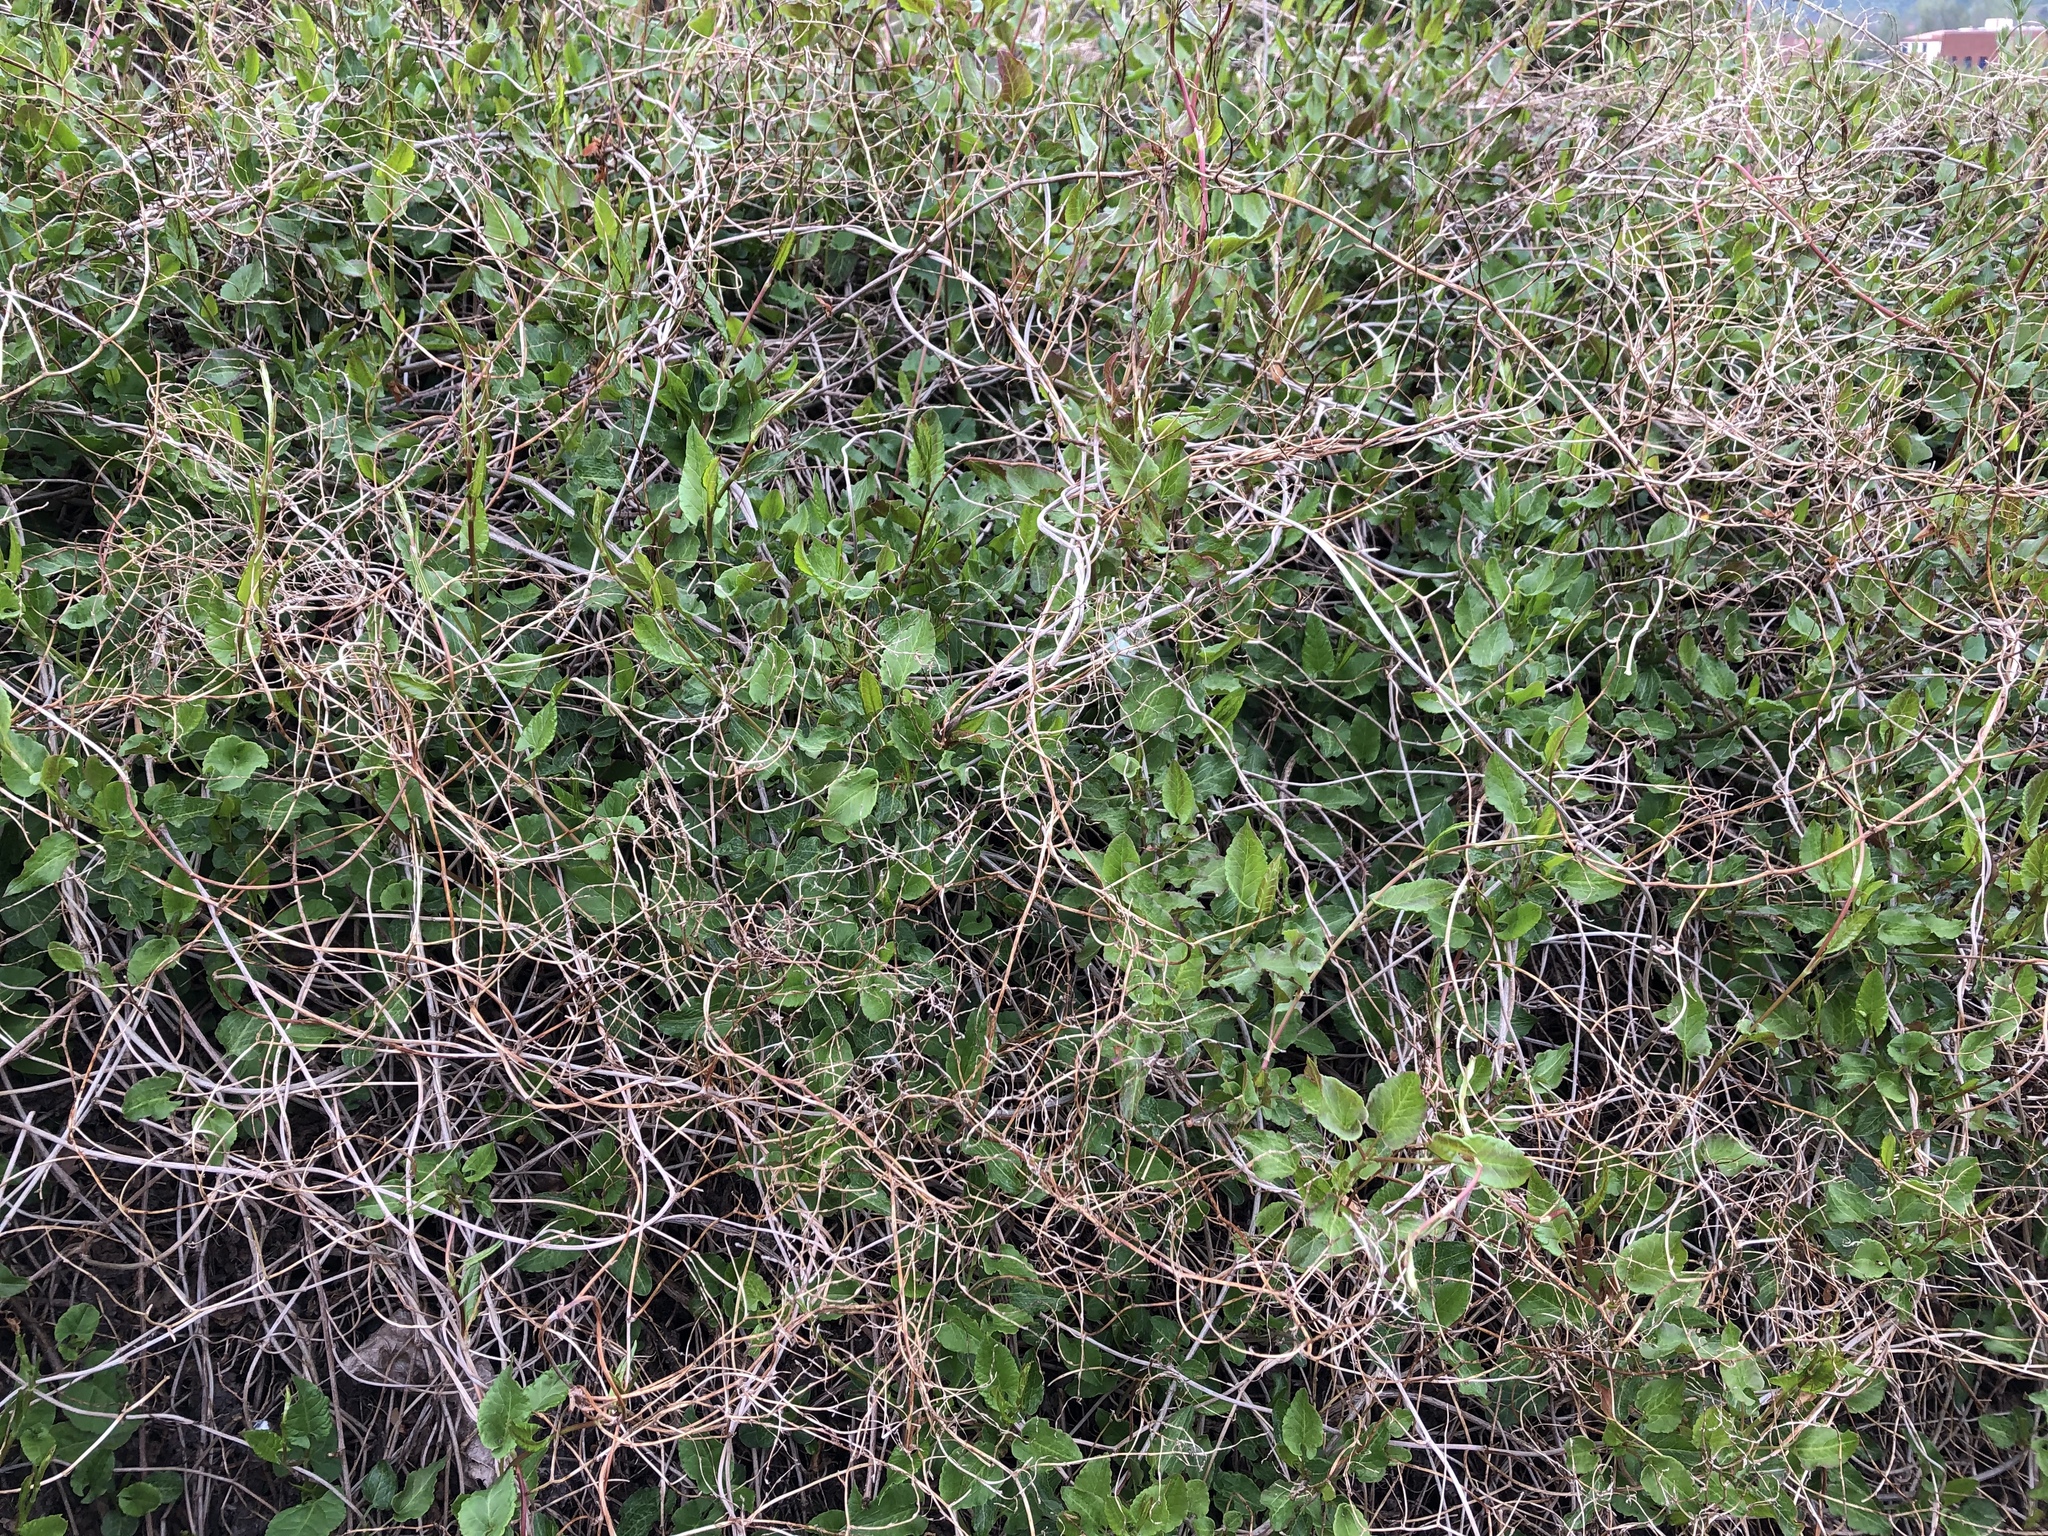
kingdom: Plantae
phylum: Tracheophyta
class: Magnoliopsida
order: Caryophyllales
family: Polygonaceae
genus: Fallopia
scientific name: Fallopia baldschuanica
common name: Russian-vine
